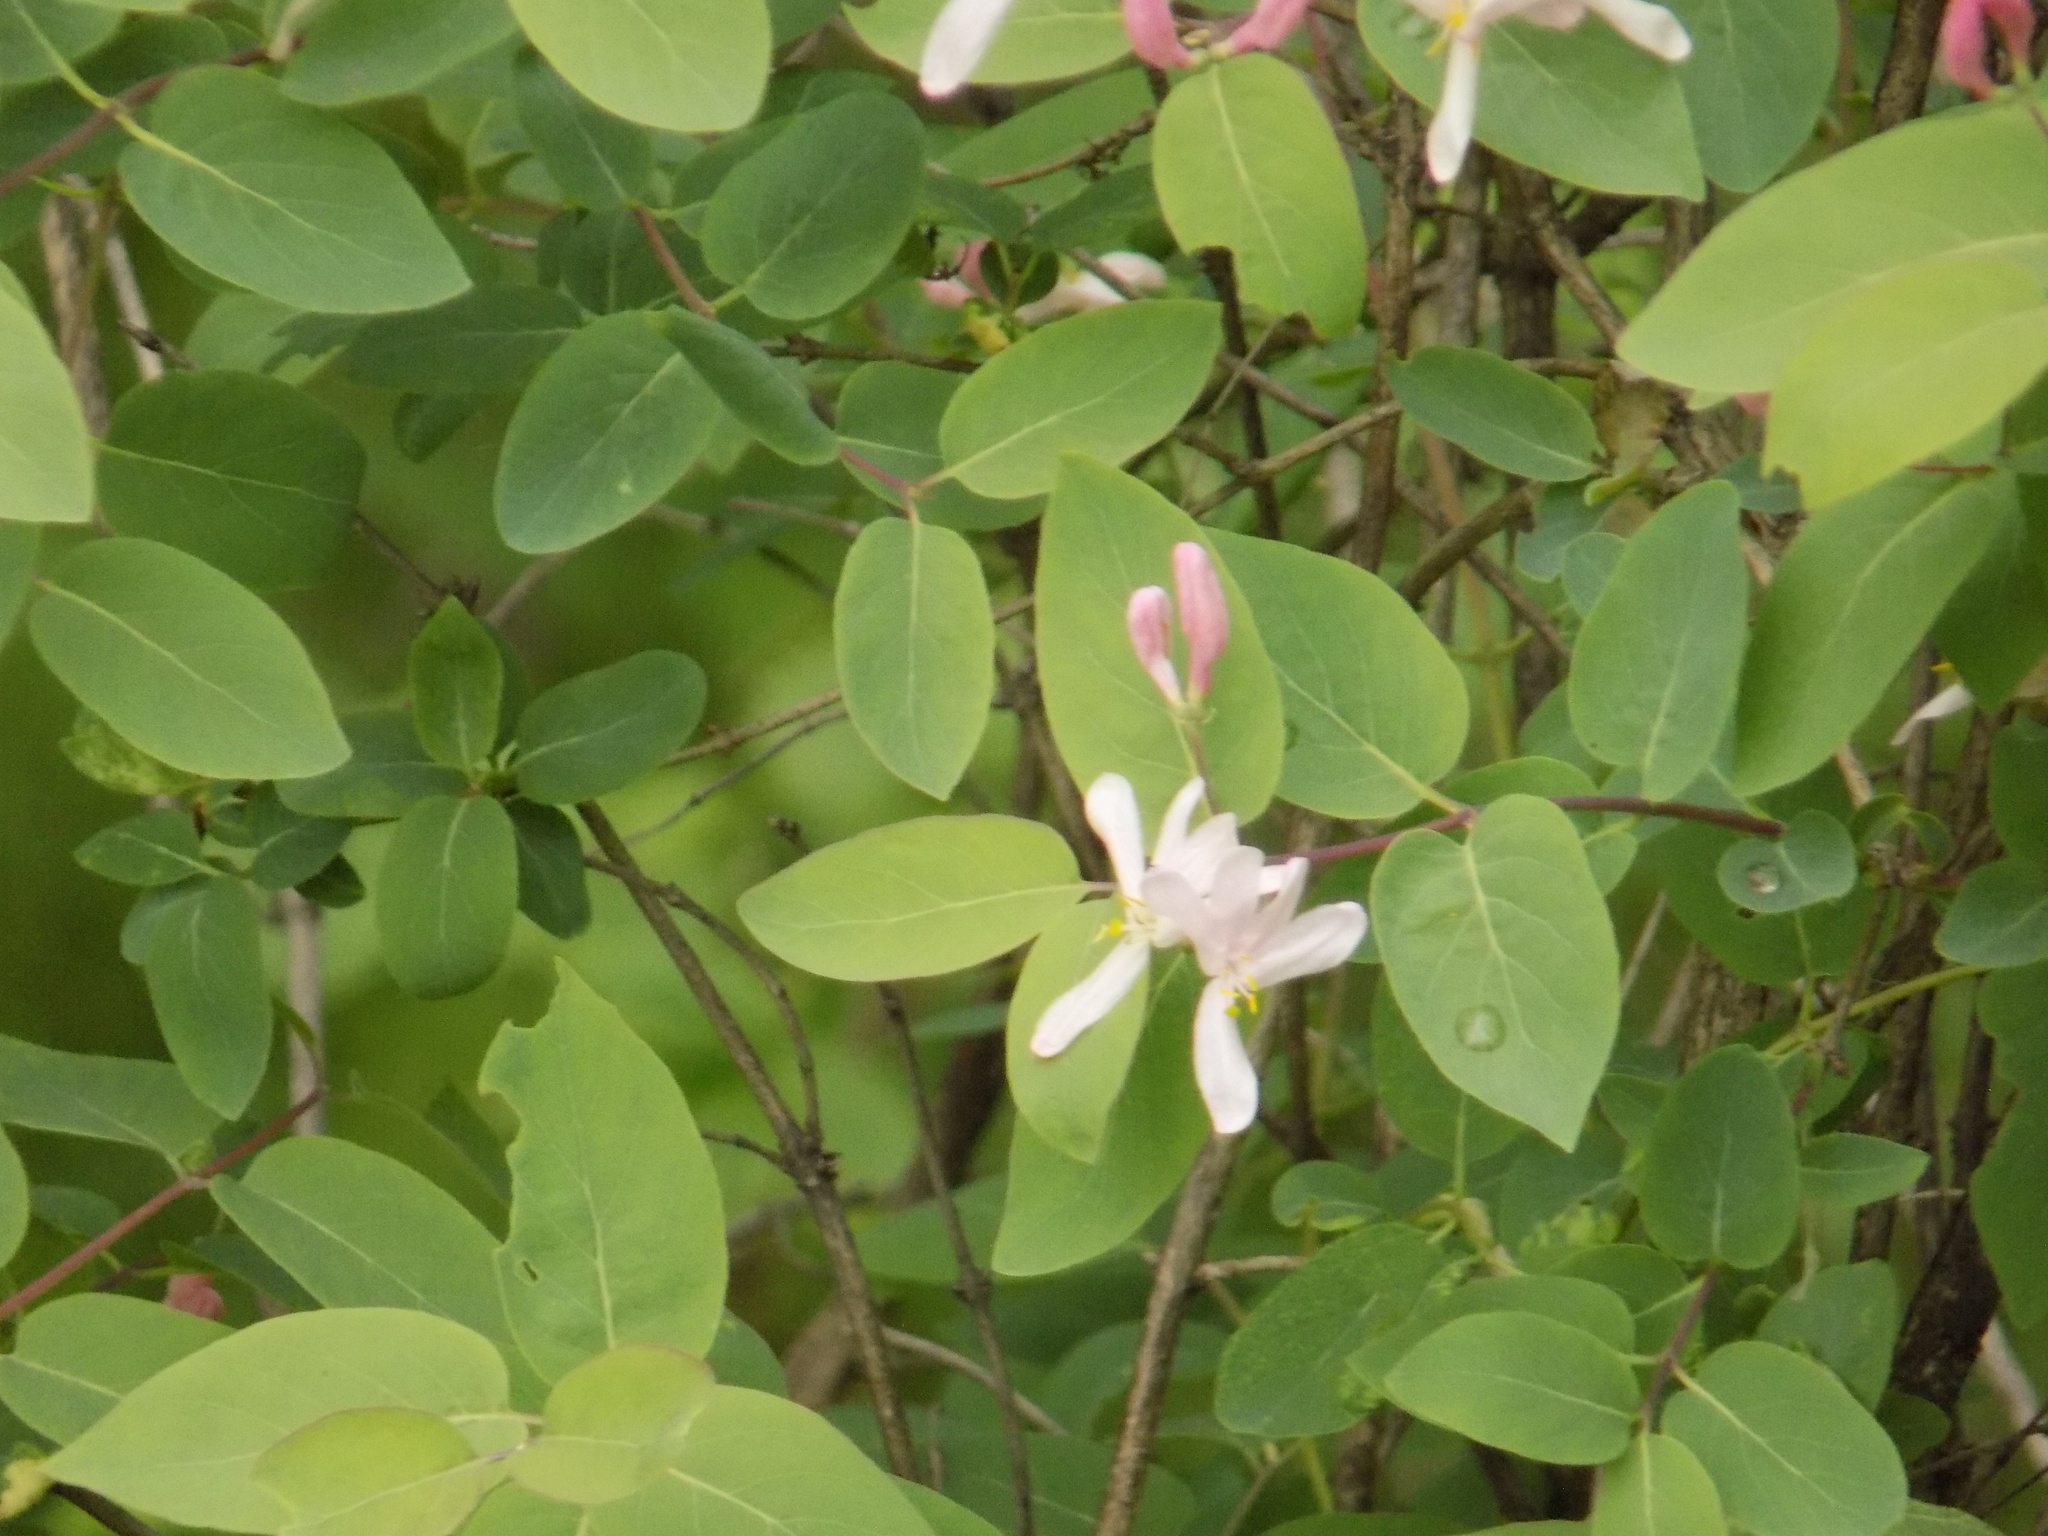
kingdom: Plantae
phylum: Tracheophyta
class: Magnoliopsida
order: Dipsacales
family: Caprifoliaceae
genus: Lonicera
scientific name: Lonicera tatarica
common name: Tatarian honeysuckle
